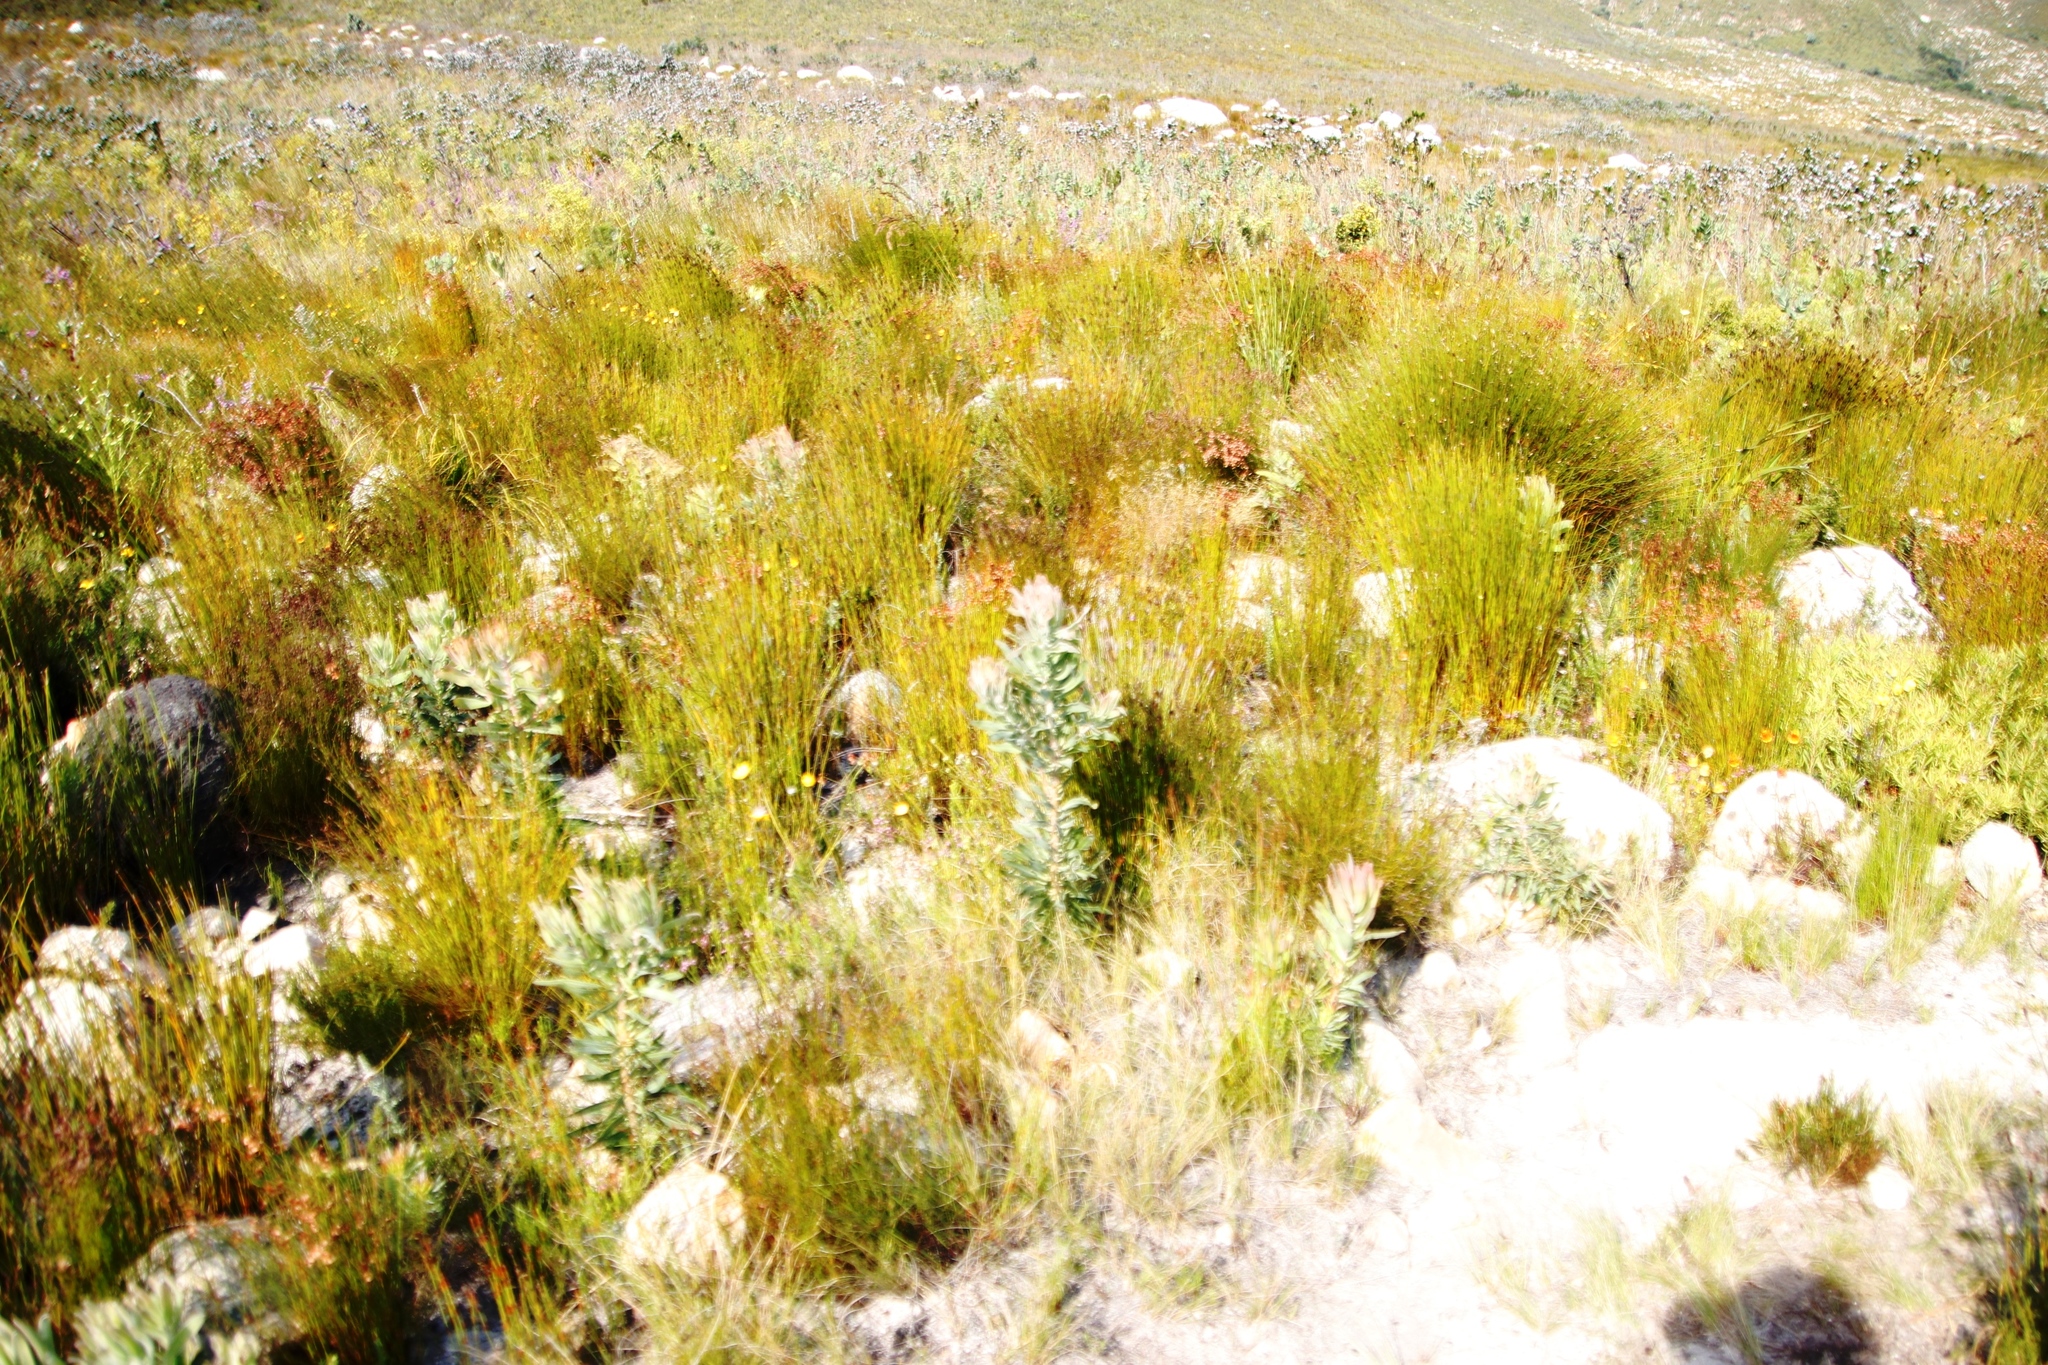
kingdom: Plantae
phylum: Tracheophyta
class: Magnoliopsida
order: Proteales
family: Proteaceae
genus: Protea
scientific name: Protea laurifolia
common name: Grey-leaf sugarbsh
